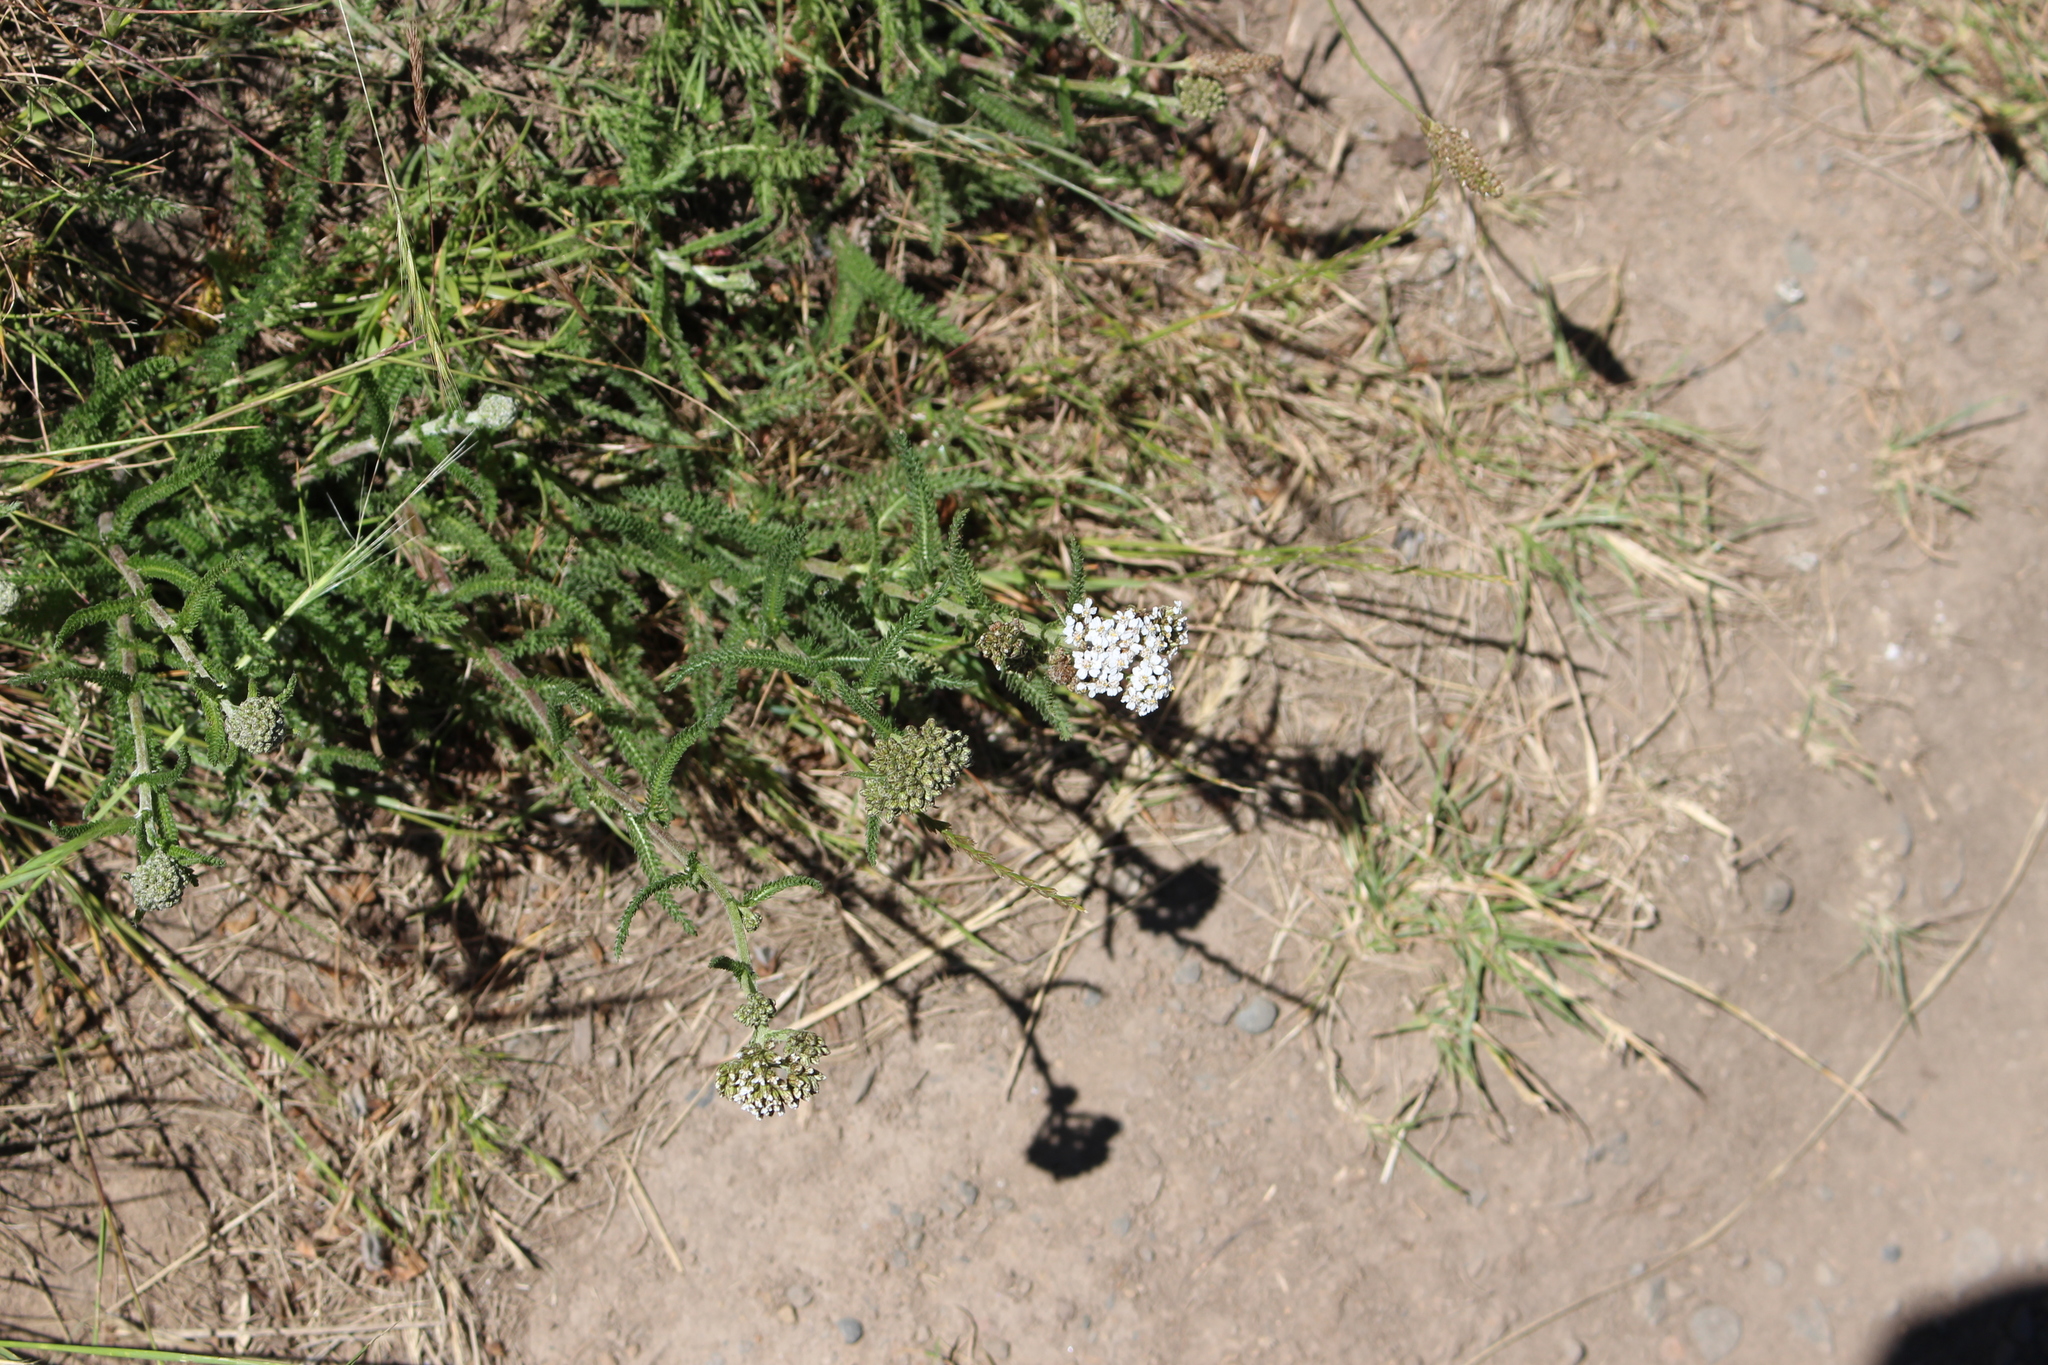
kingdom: Plantae
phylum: Tracheophyta
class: Magnoliopsida
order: Asterales
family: Asteraceae
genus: Achillea
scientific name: Achillea millefolium
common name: Yarrow
